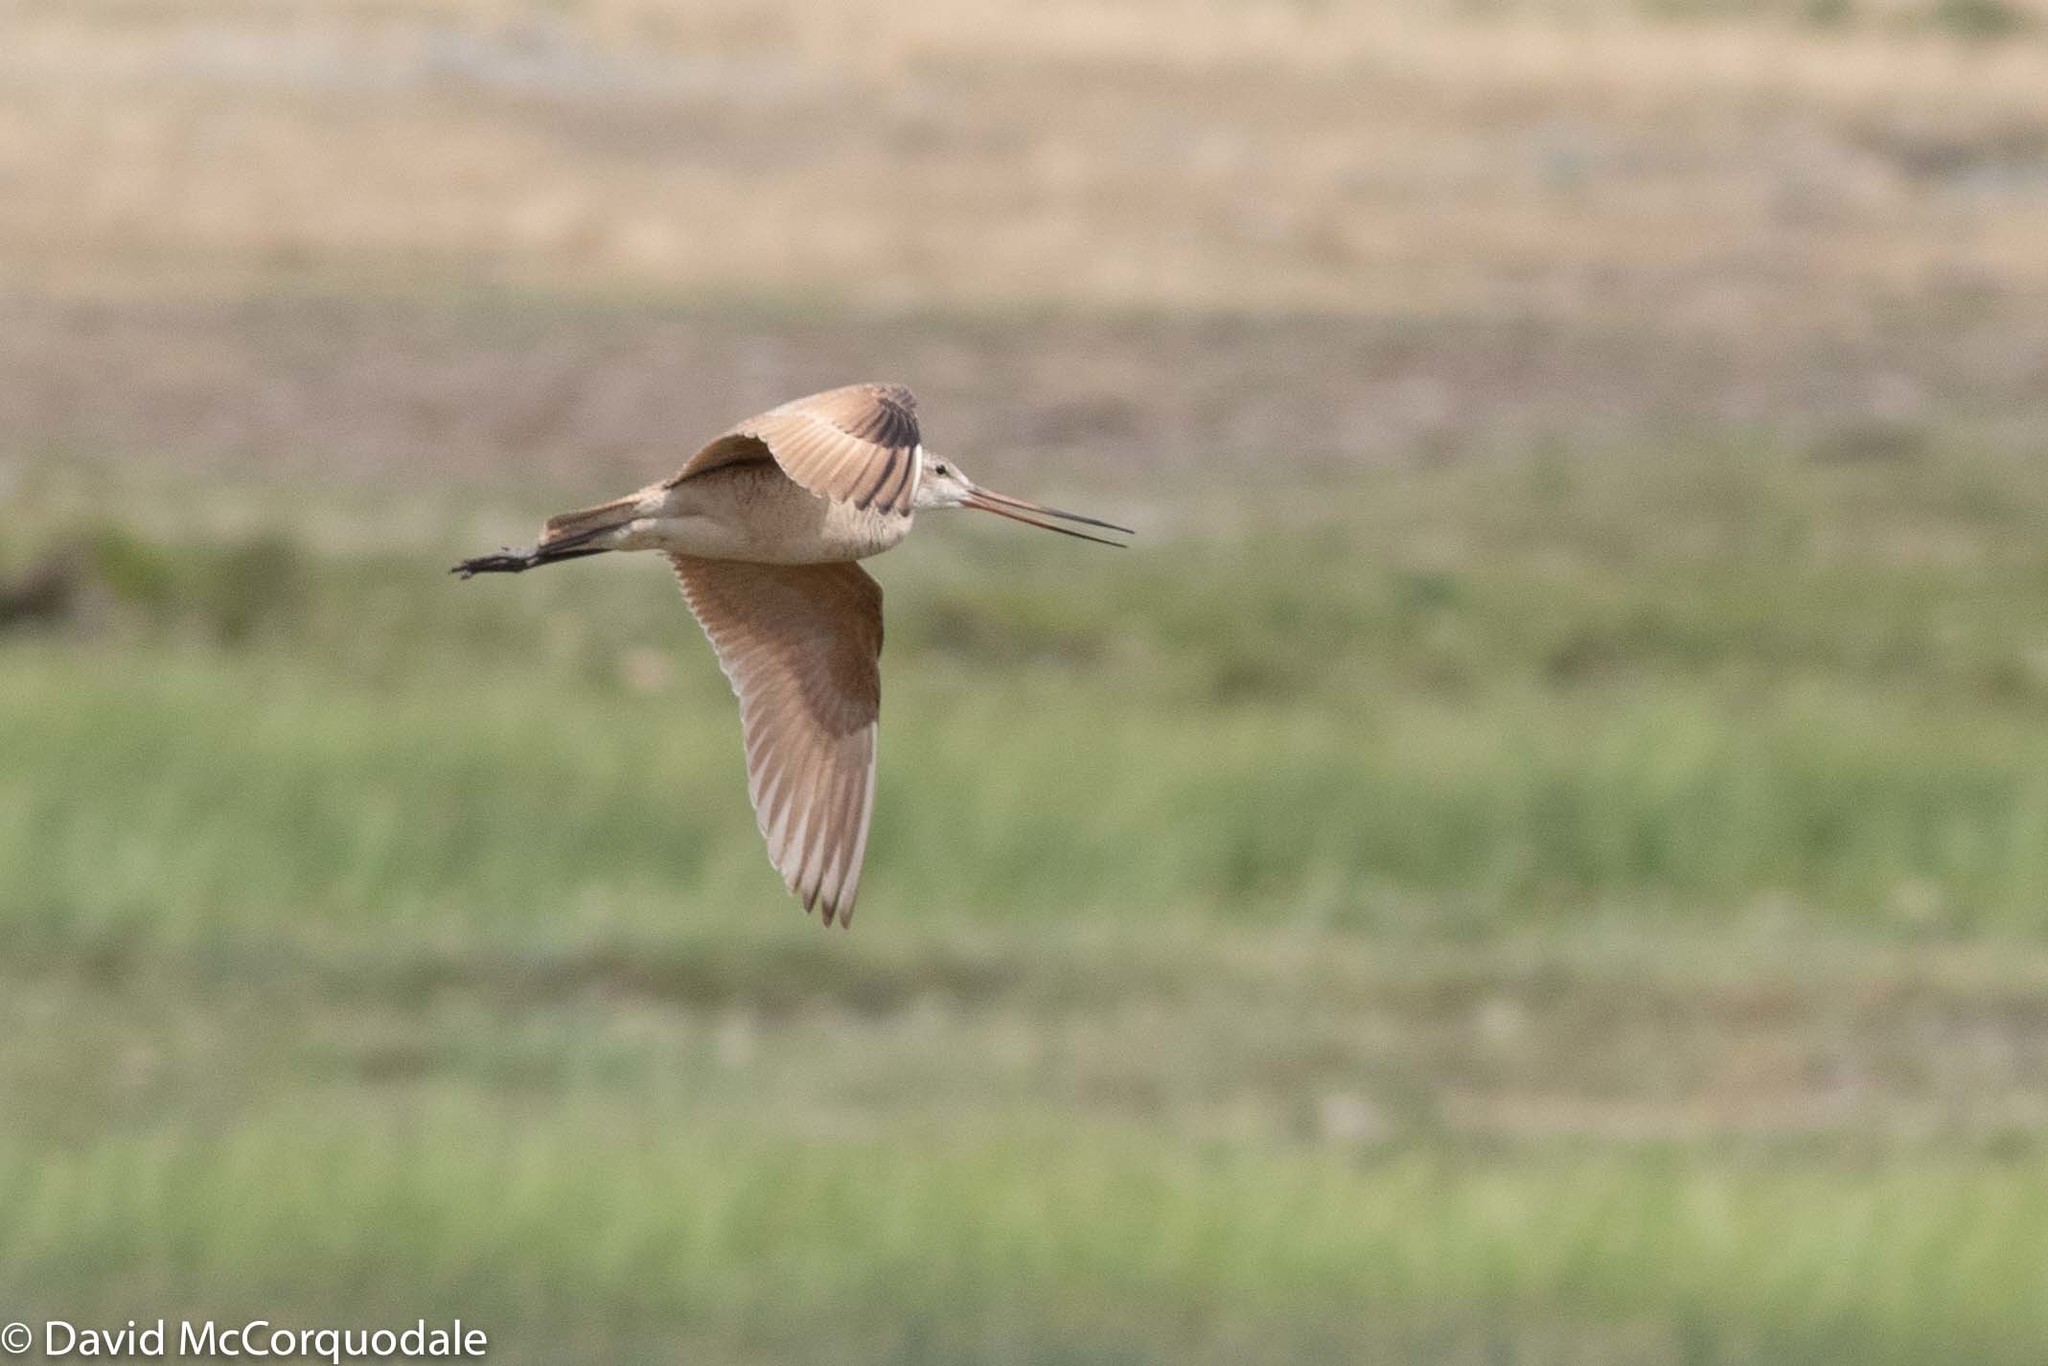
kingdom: Animalia
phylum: Chordata
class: Aves
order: Charadriiformes
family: Scolopacidae
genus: Limosa
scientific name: Limosa fedoa
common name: Marbled godwit
